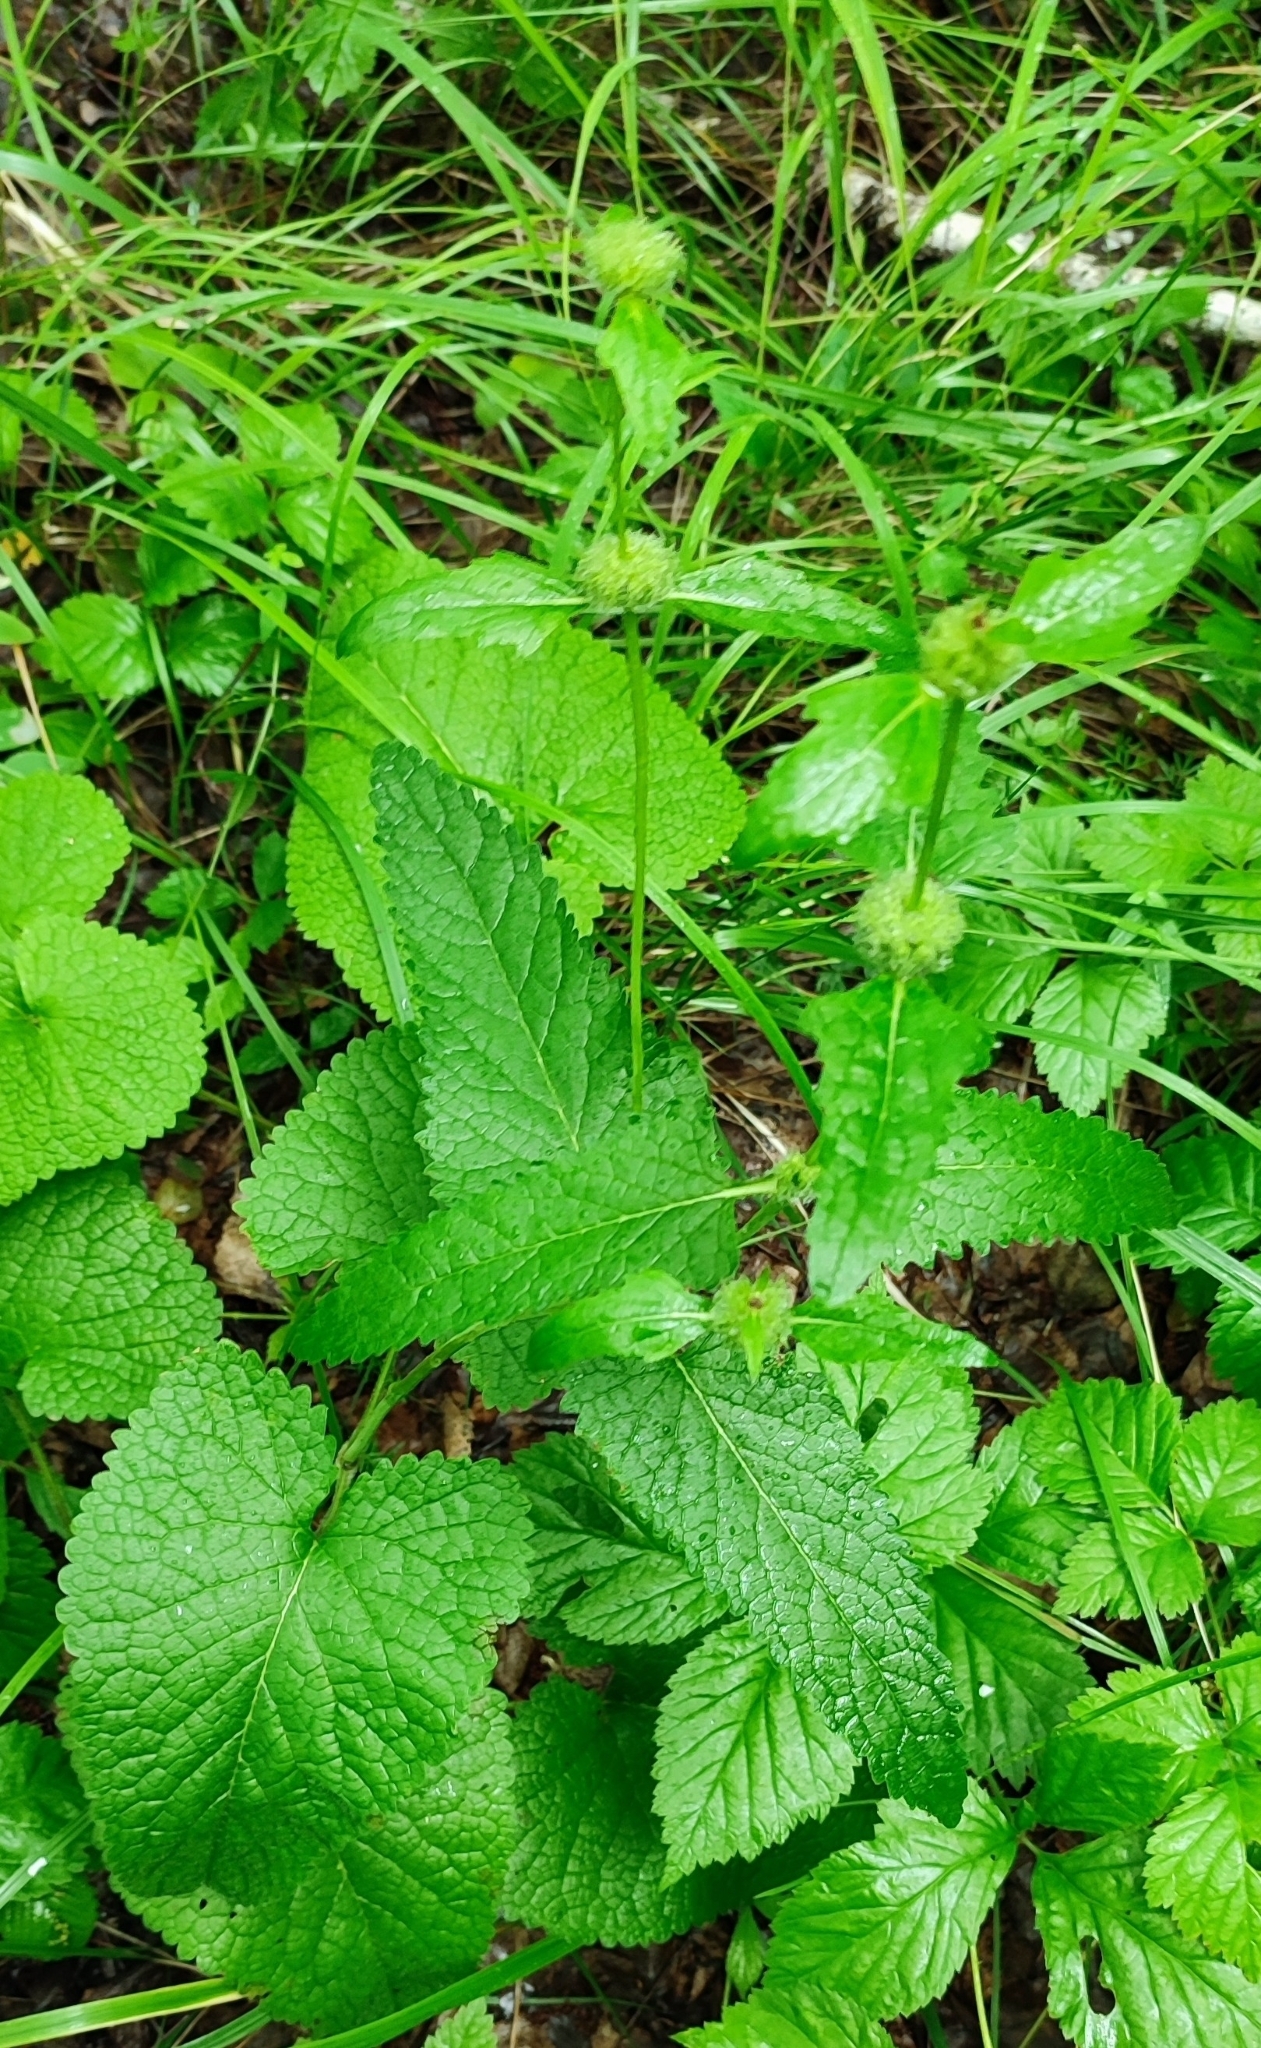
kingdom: Plantae
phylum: Tracheophyta
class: Magnoliopsida
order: Lamiales
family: Lamiaceae
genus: Phlomoides
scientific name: Phlomoides tuberosa
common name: Tuberous jerusalem sage
